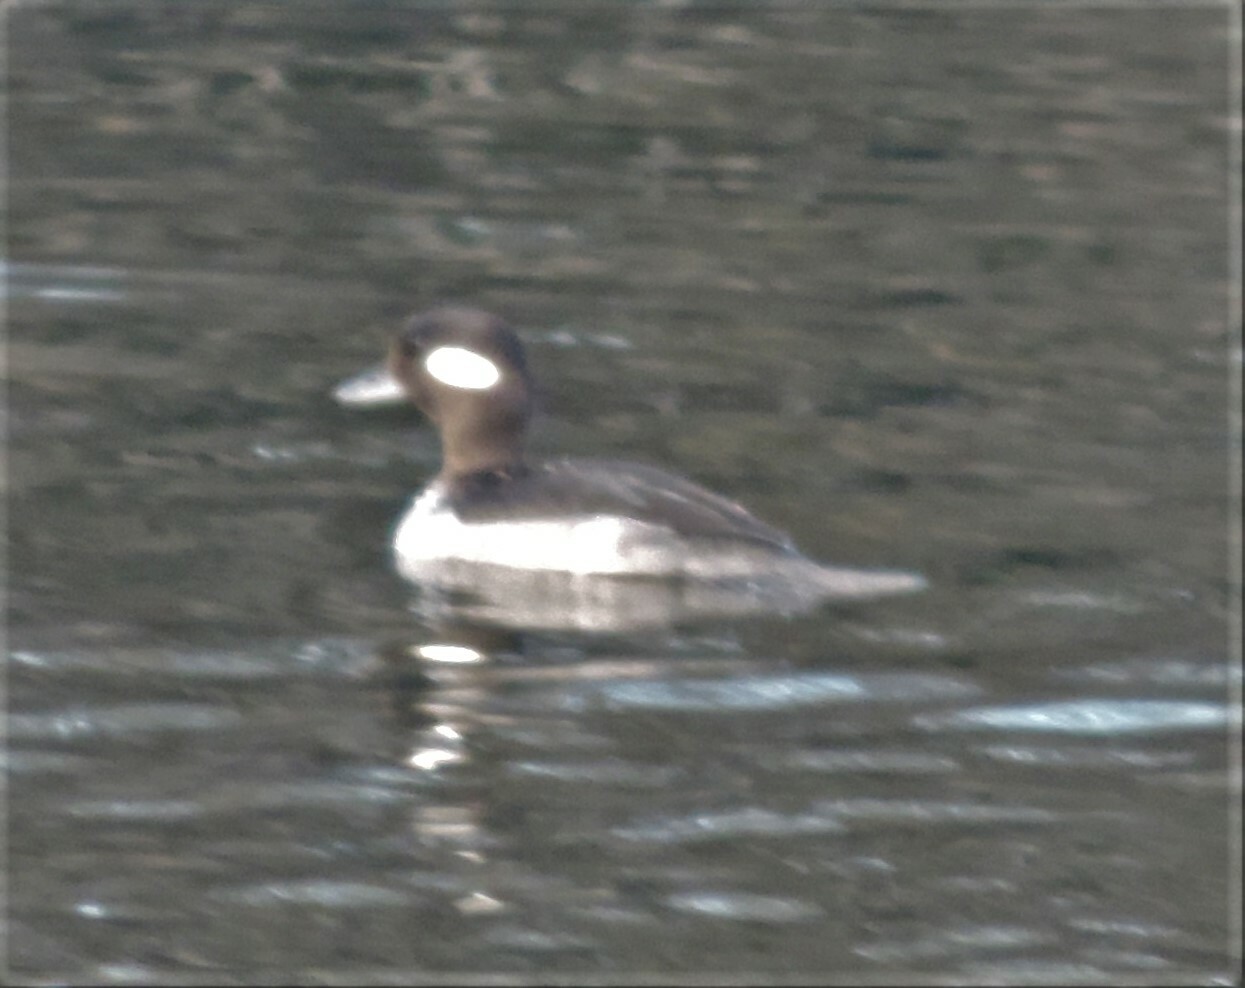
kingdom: Animalia
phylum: Chordata
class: Aves
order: Anseriformes
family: Anatidae
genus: Bucephala
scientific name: Bucephala albeola
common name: Bufflehead
